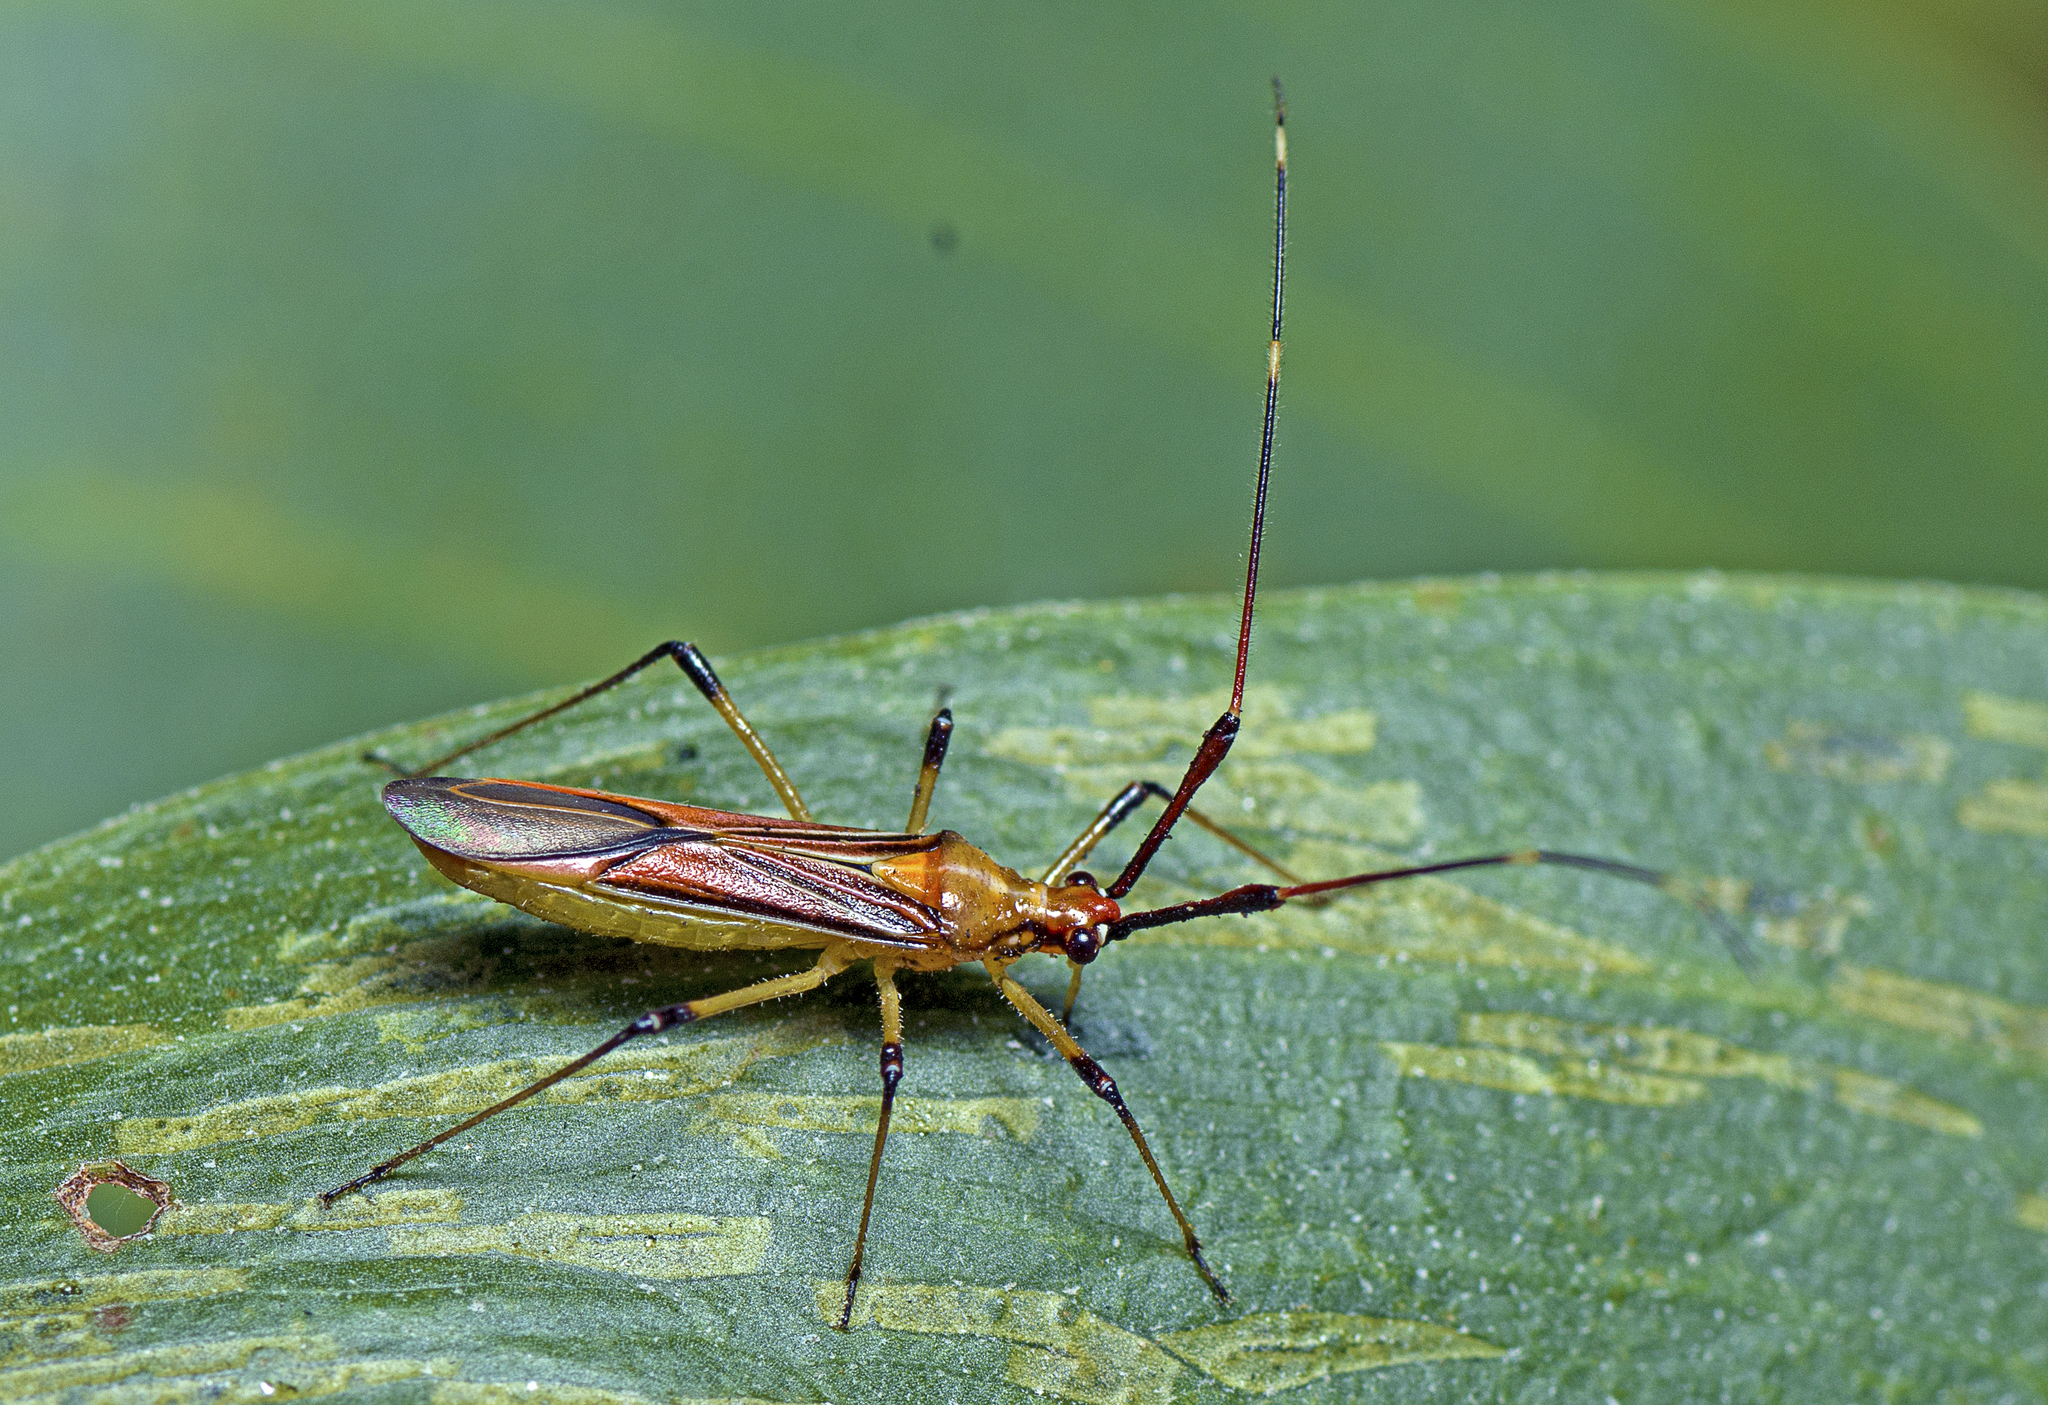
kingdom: Animalia
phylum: Arthropoda
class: Insecta
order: Hemiptera
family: Miridae
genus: Rayieria
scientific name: Rayieria
